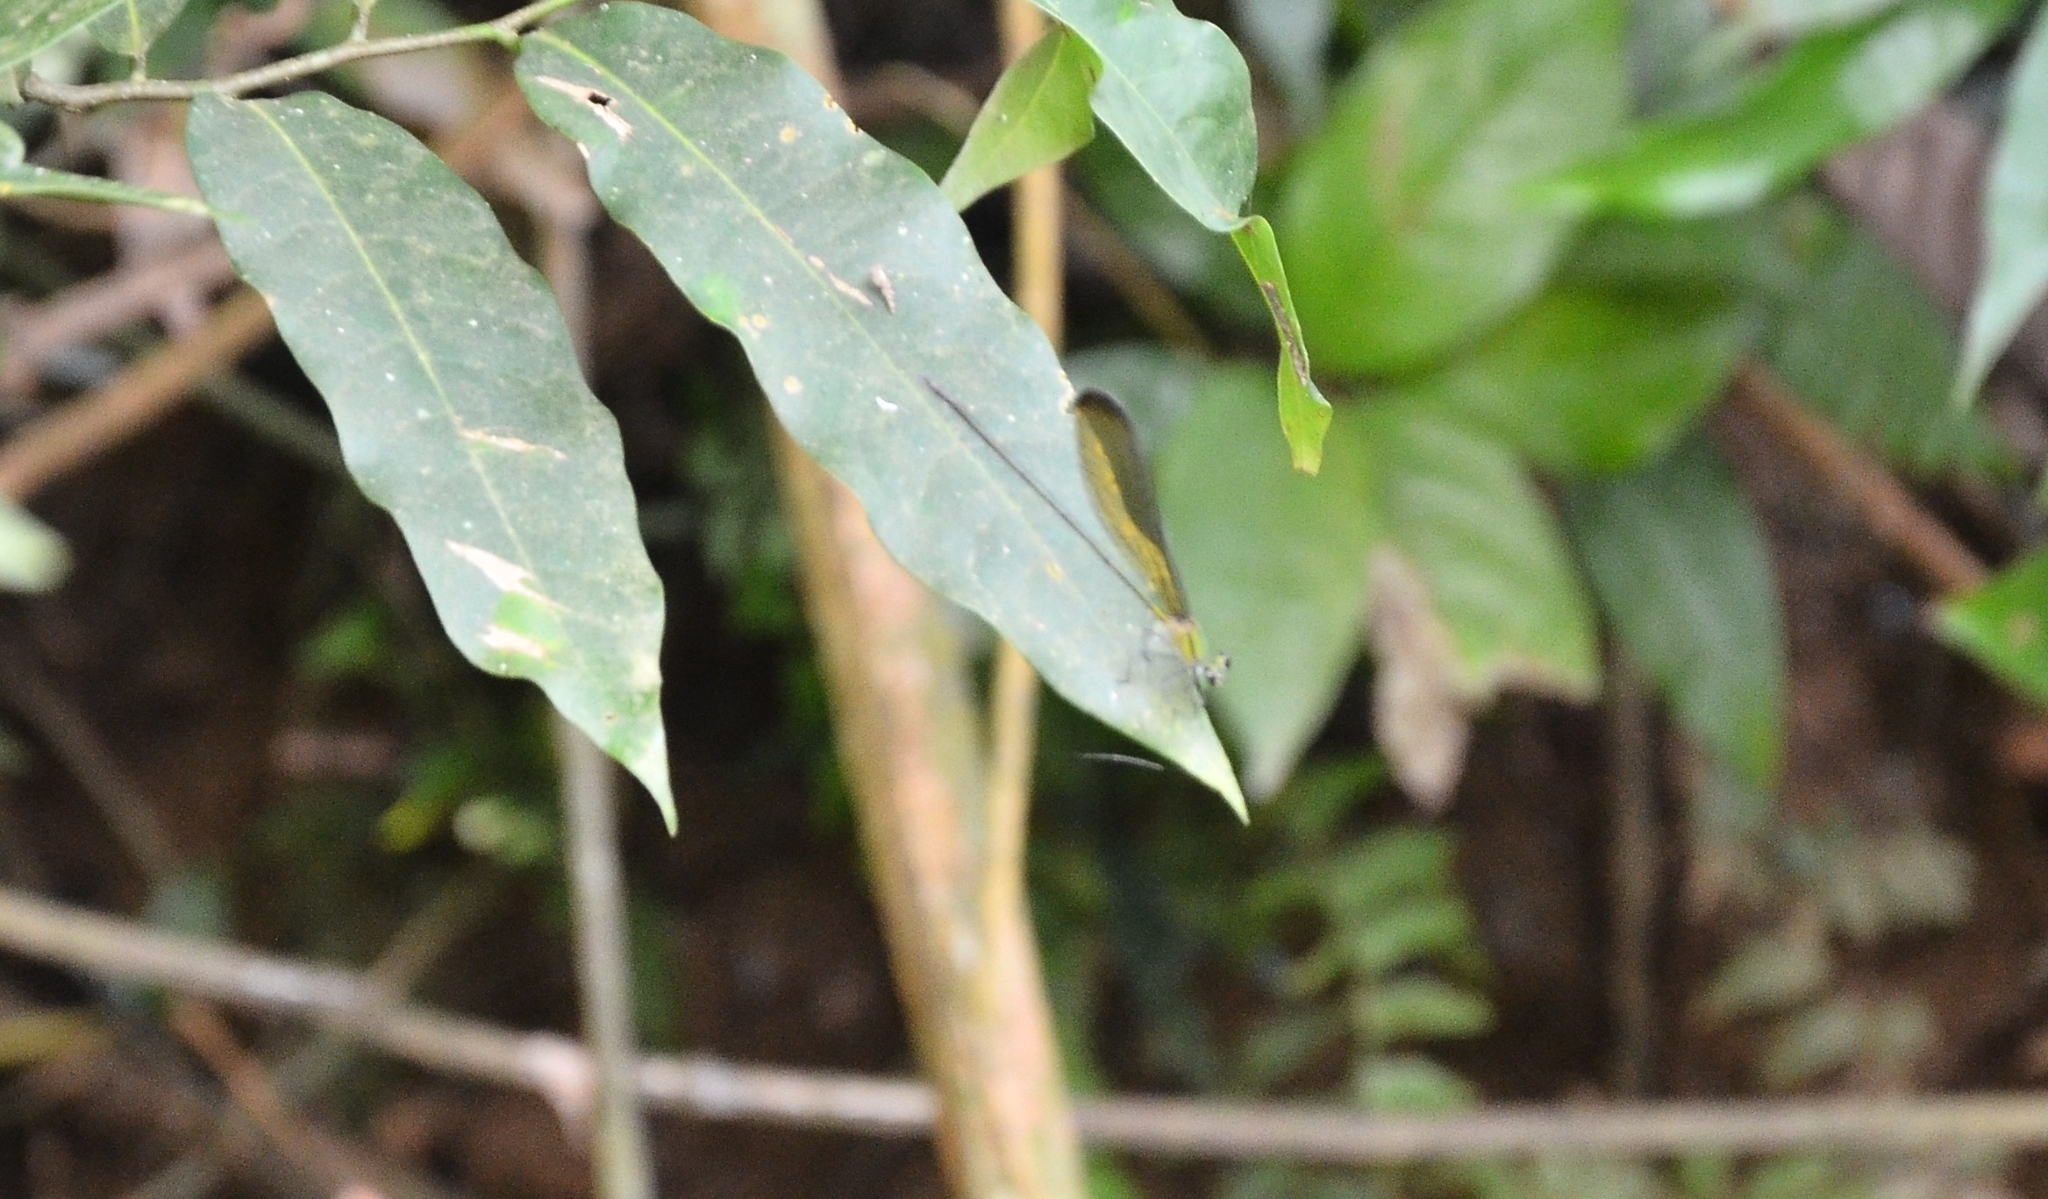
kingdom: Animalia
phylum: Arthropoda
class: Insecta
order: Odonata
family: Calopterygidae
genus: Vestalis
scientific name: Vestalis apicalis
